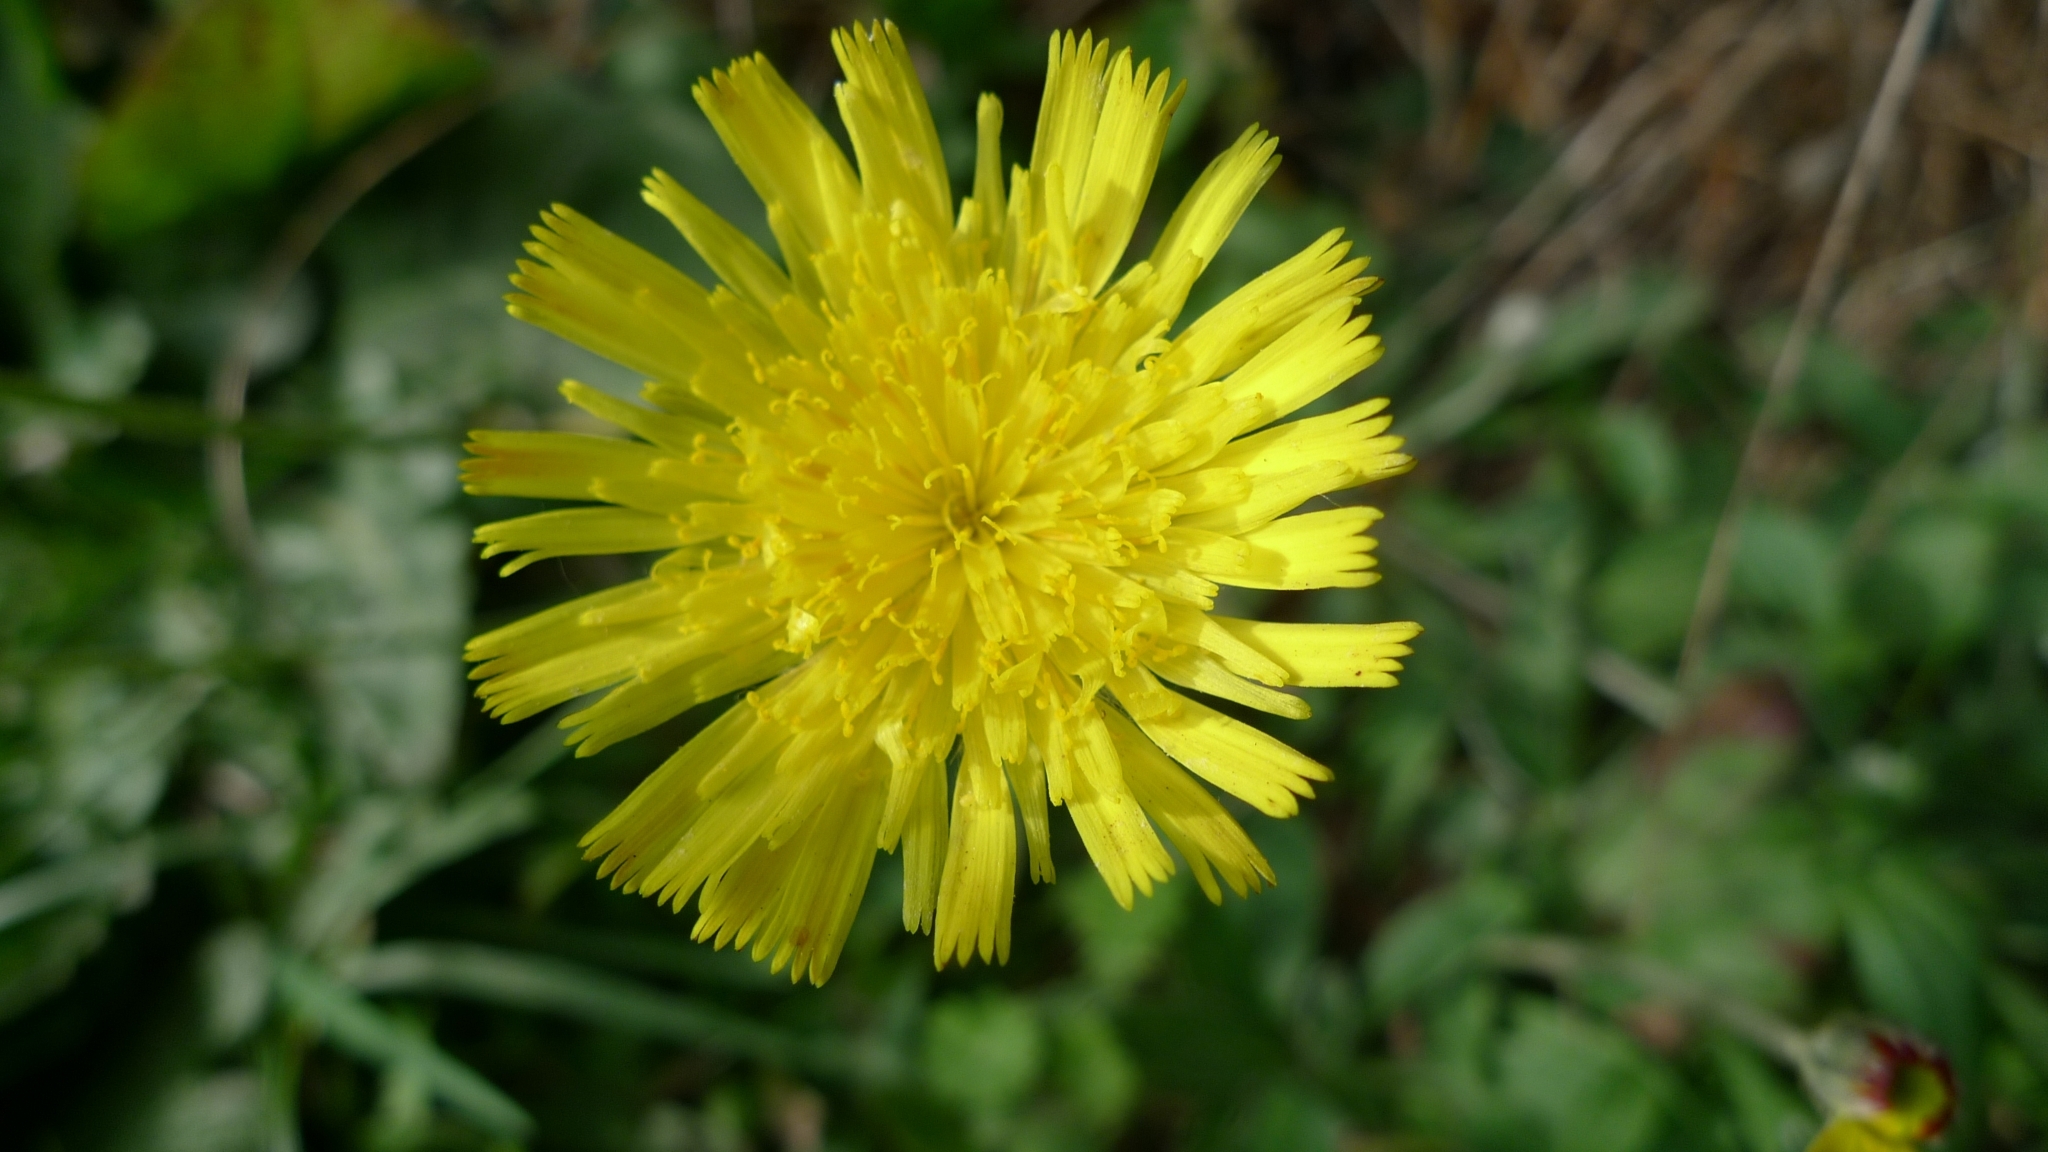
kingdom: Plantae
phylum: Tracheophyta
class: Magnoliopsida
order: Asterales
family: Asteraceae
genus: Pilosella
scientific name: Pilosella officinarum
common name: Mouse-ear hawkweed
